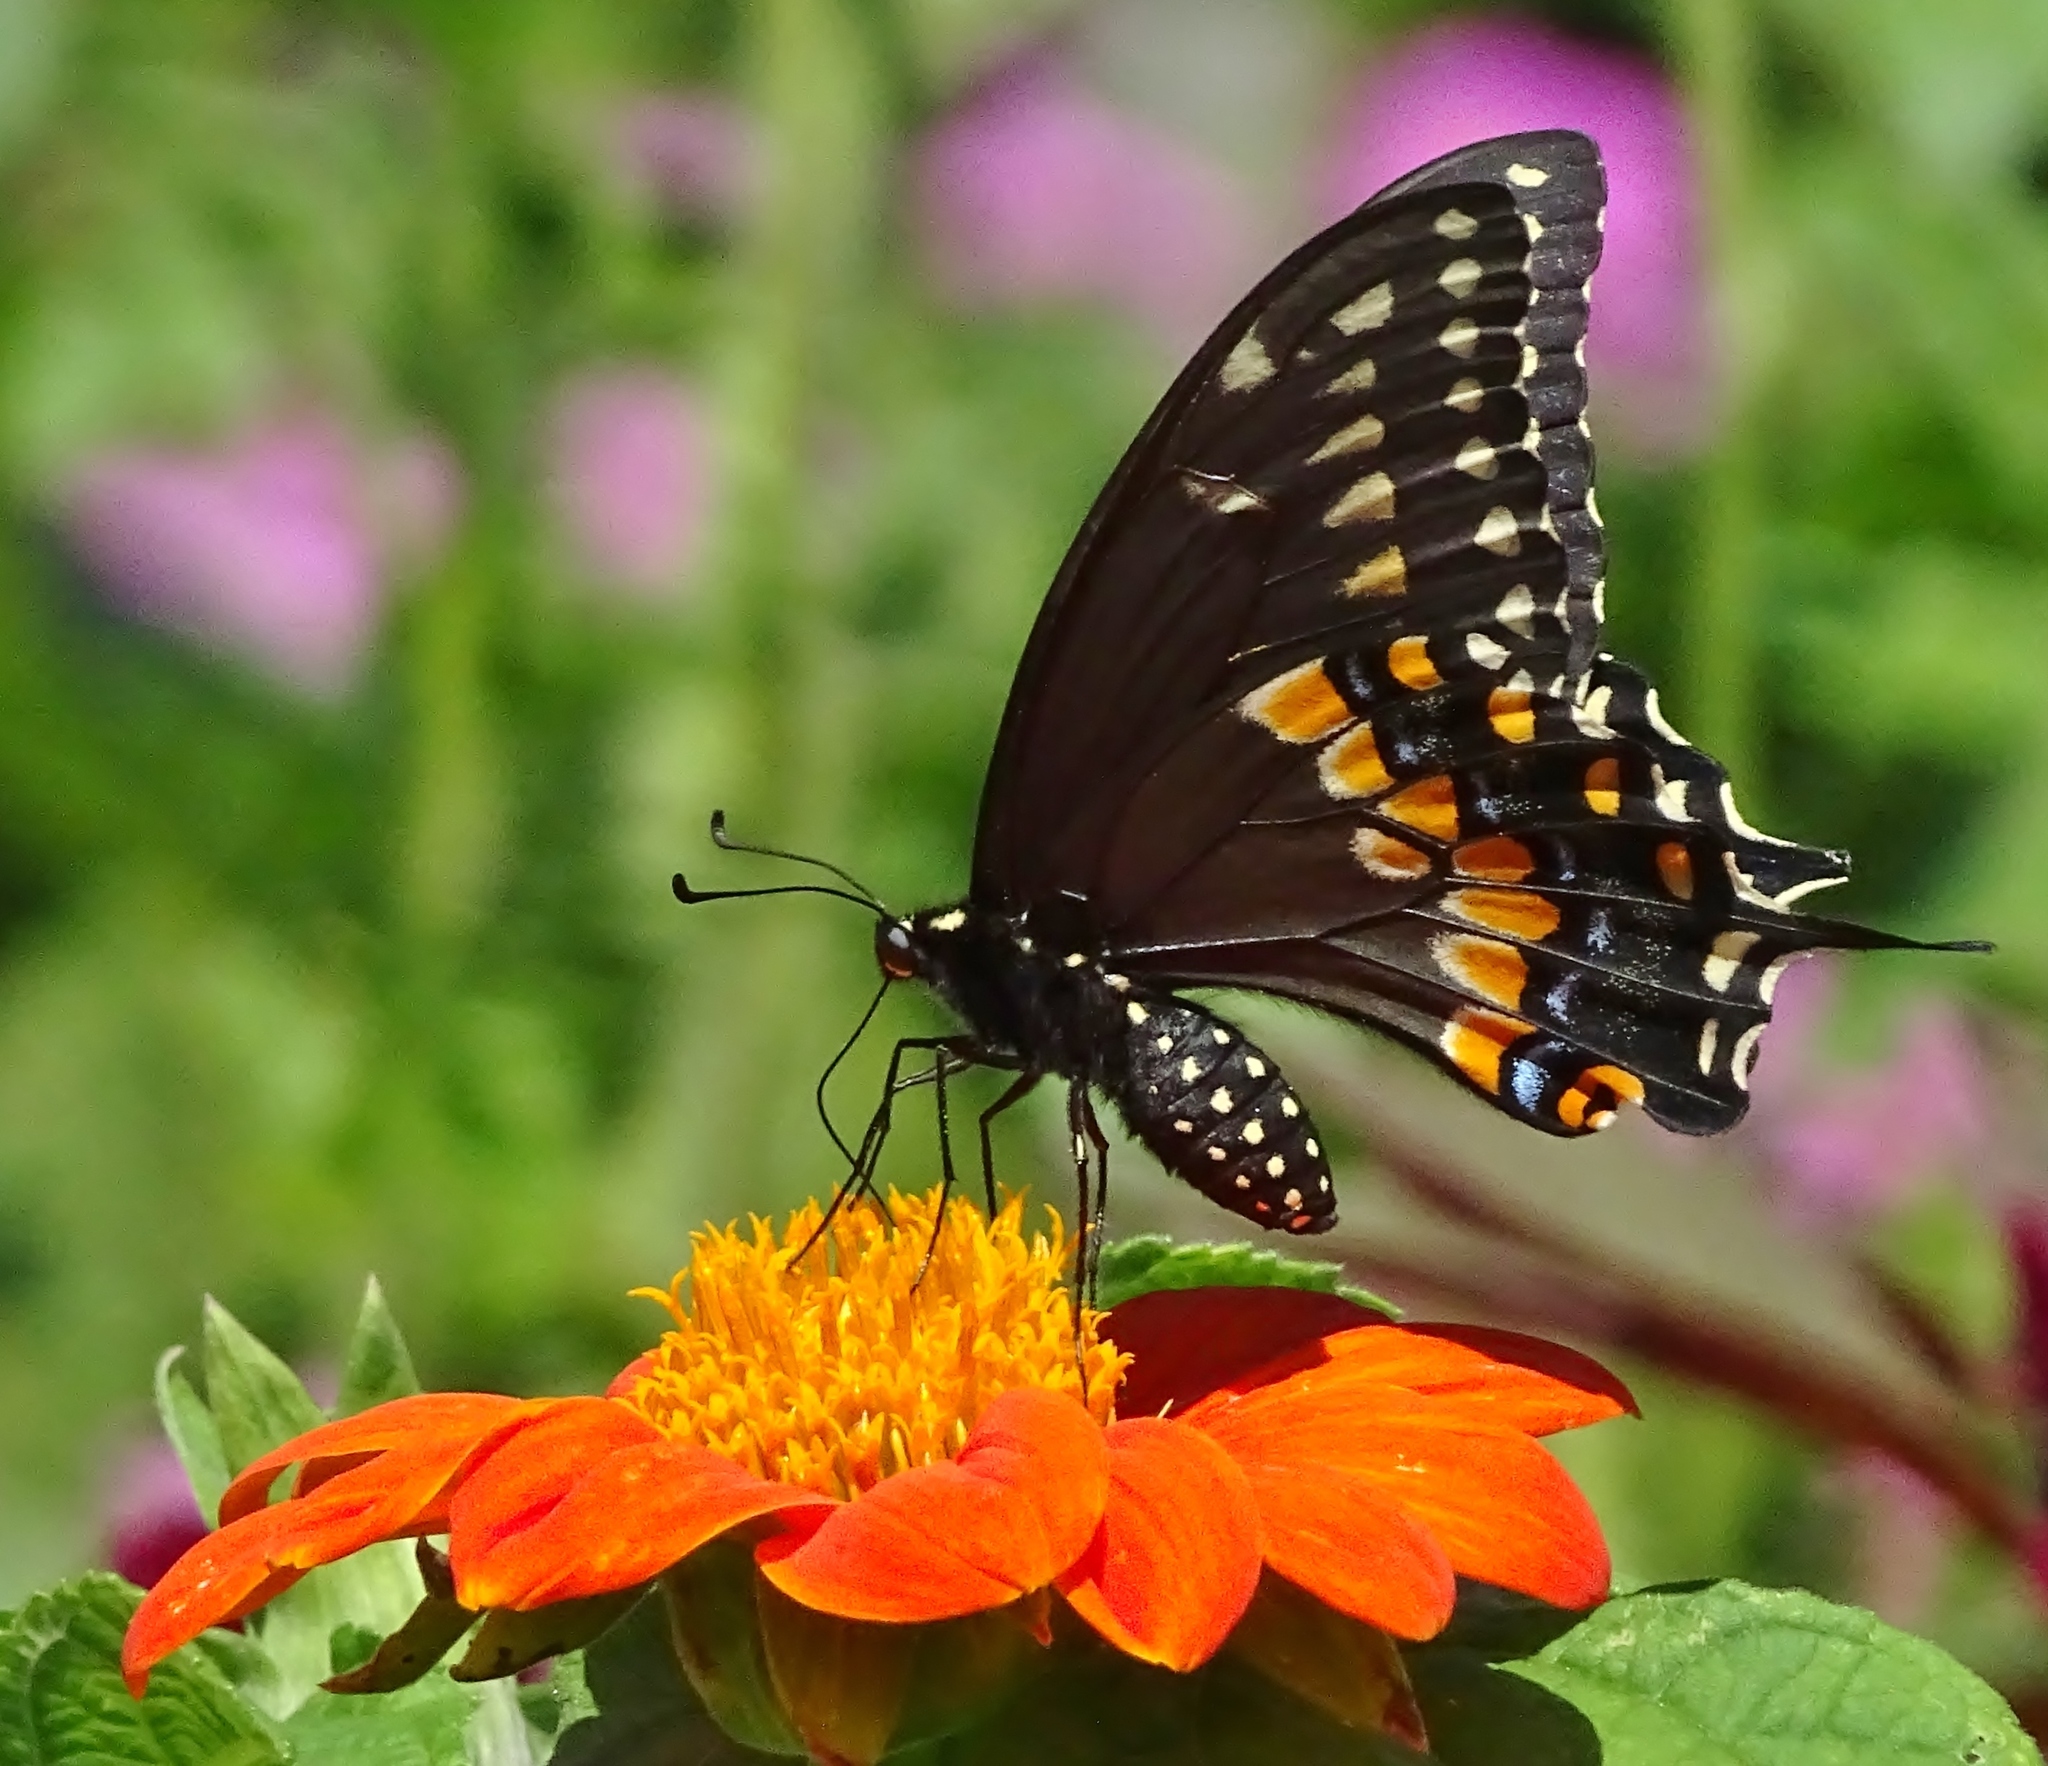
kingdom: Animalia
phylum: Arthropoda
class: Insecta
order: Lepidoptera
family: Papilionidae
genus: Papilio
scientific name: Papilio polyxenes
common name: Black swallowtail
